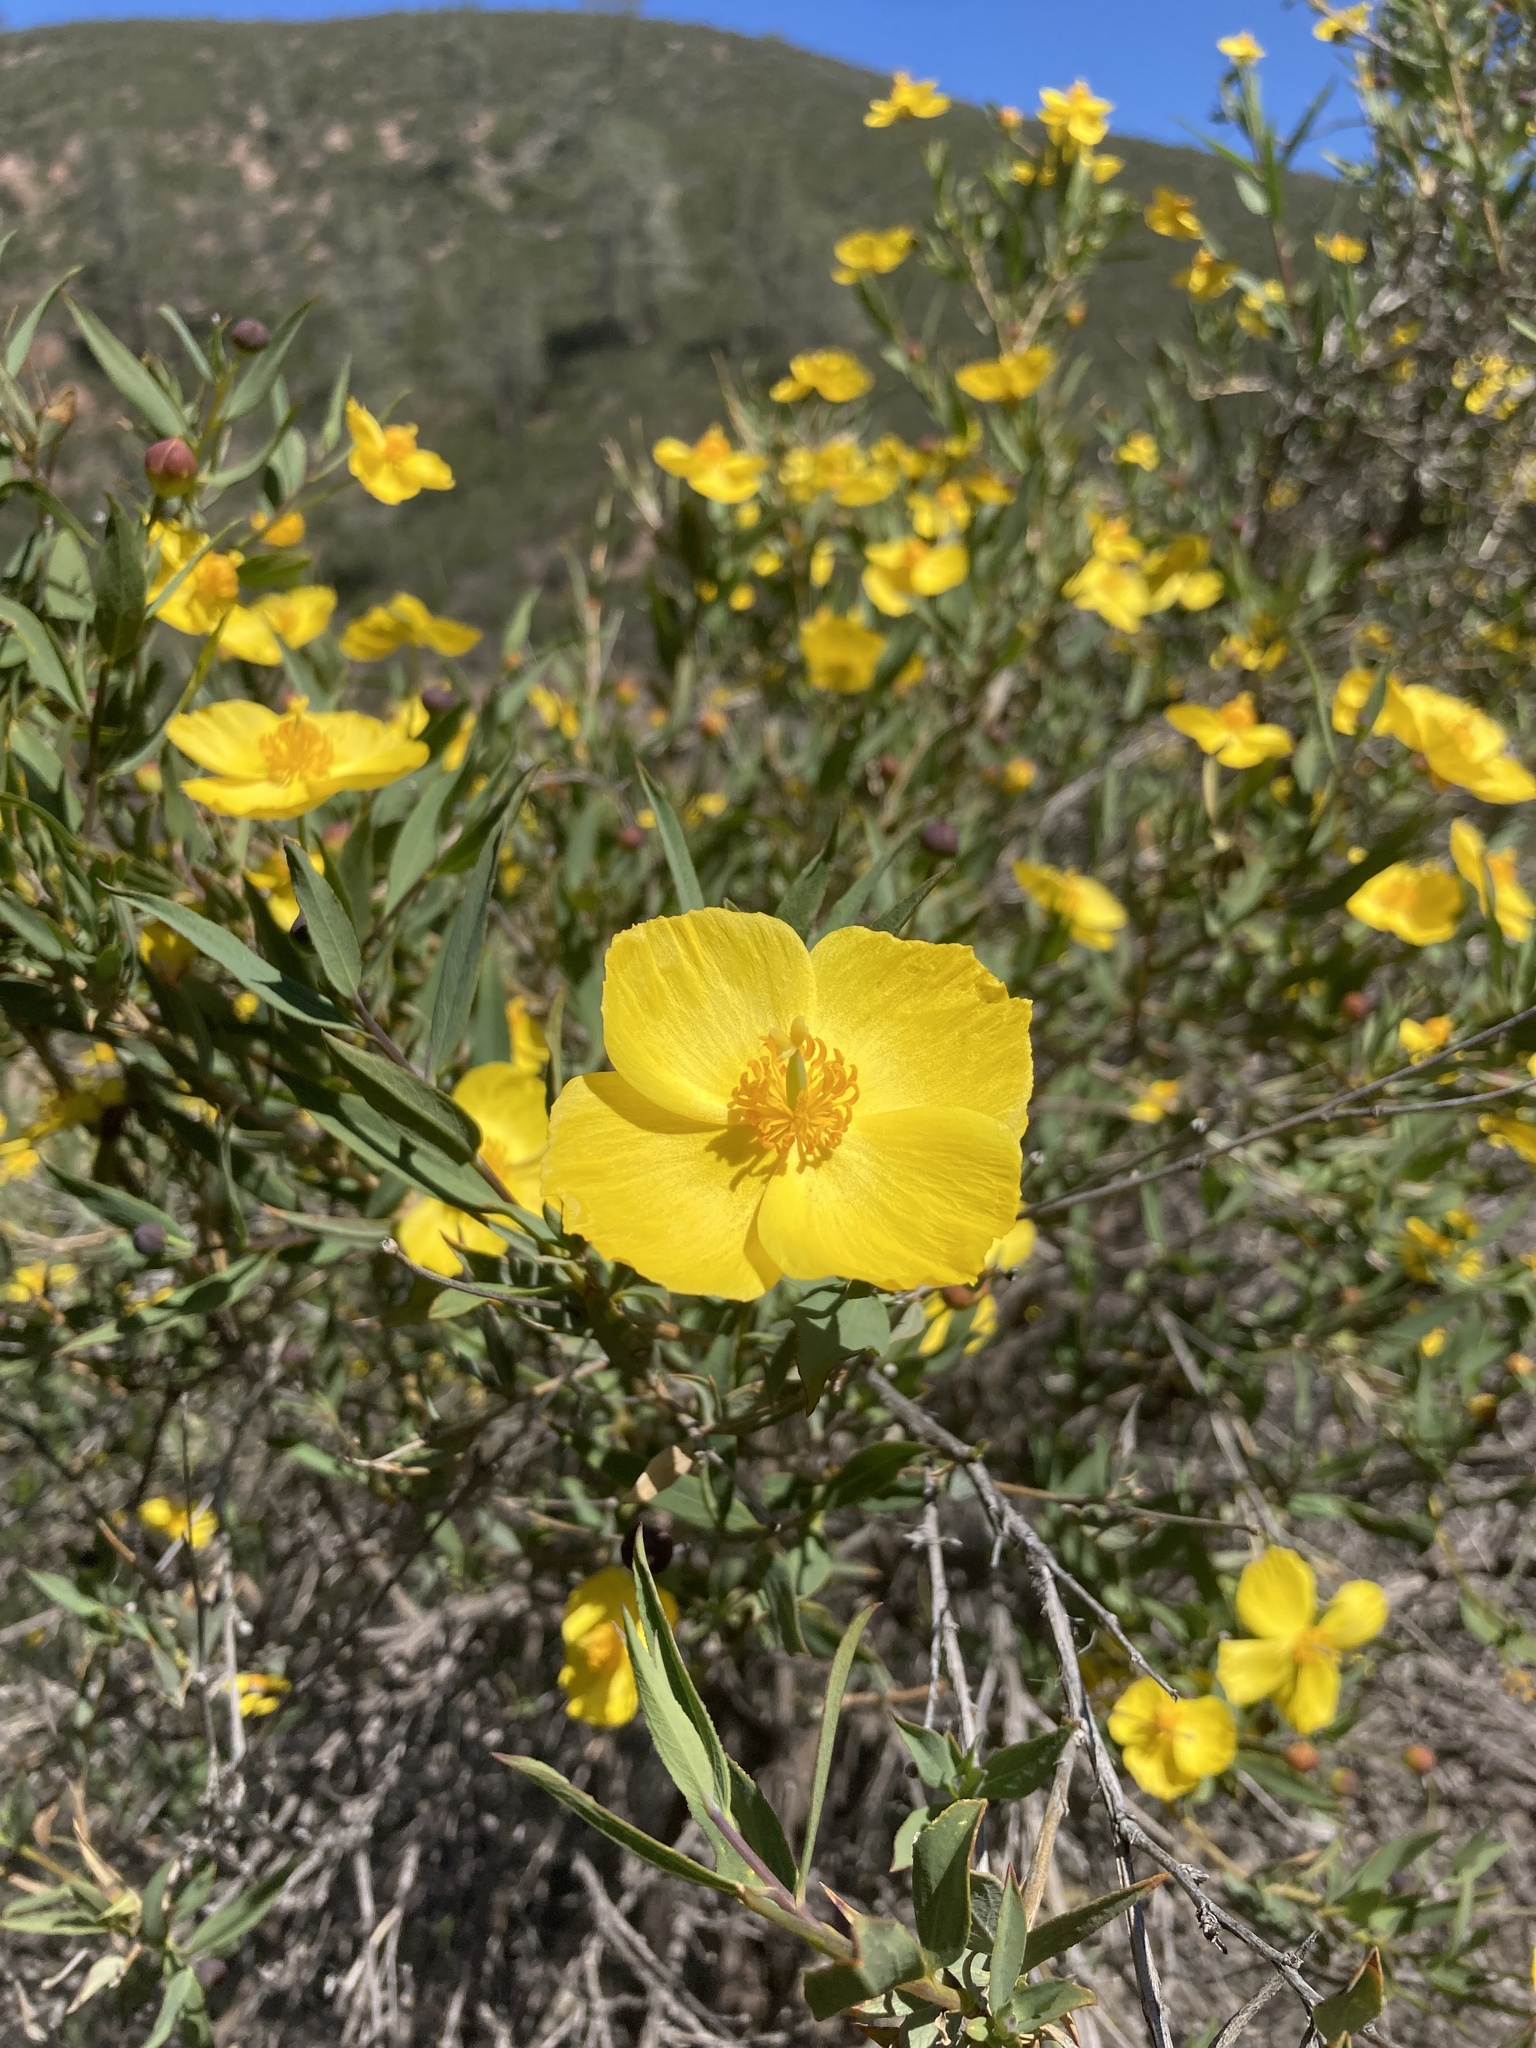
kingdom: Plantae
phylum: Tracheophyta
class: Magnoliopsida
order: Ranunculales
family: Papaveraceae
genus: Dendromecon
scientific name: Dendromecon rigida
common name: Tree poppy
